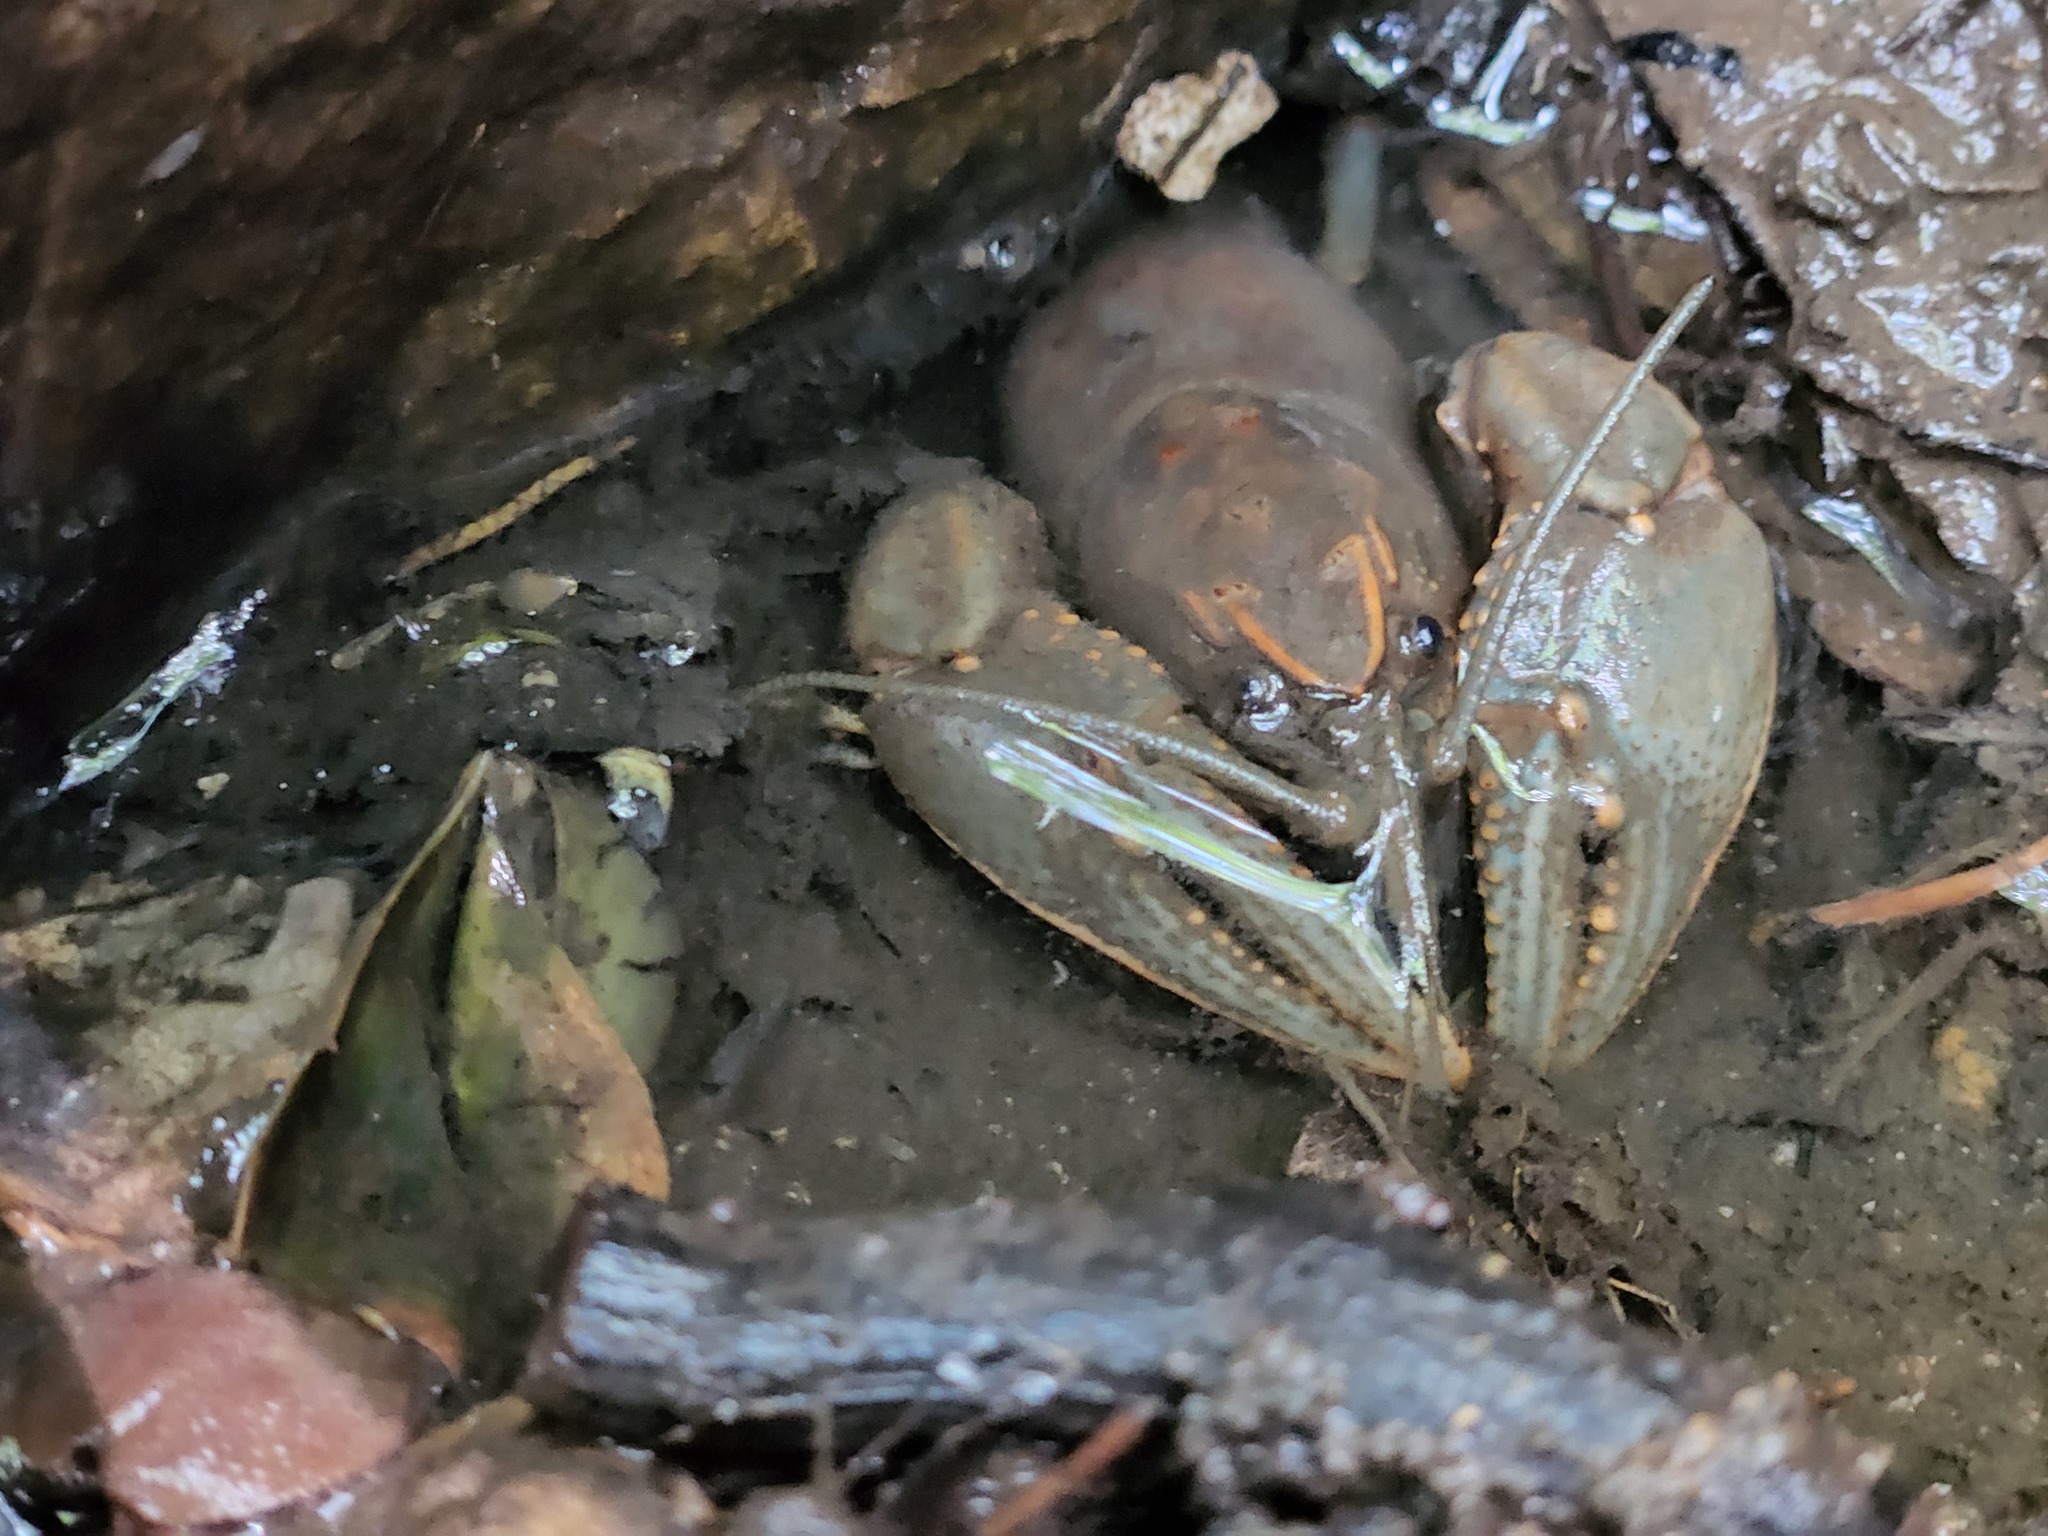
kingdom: Animalia
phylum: Arthropoda
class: Malacostraca
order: Decapoda
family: Cambaridae
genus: Cambarus
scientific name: Cambarus striatus
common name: Ambiguous crayfish
